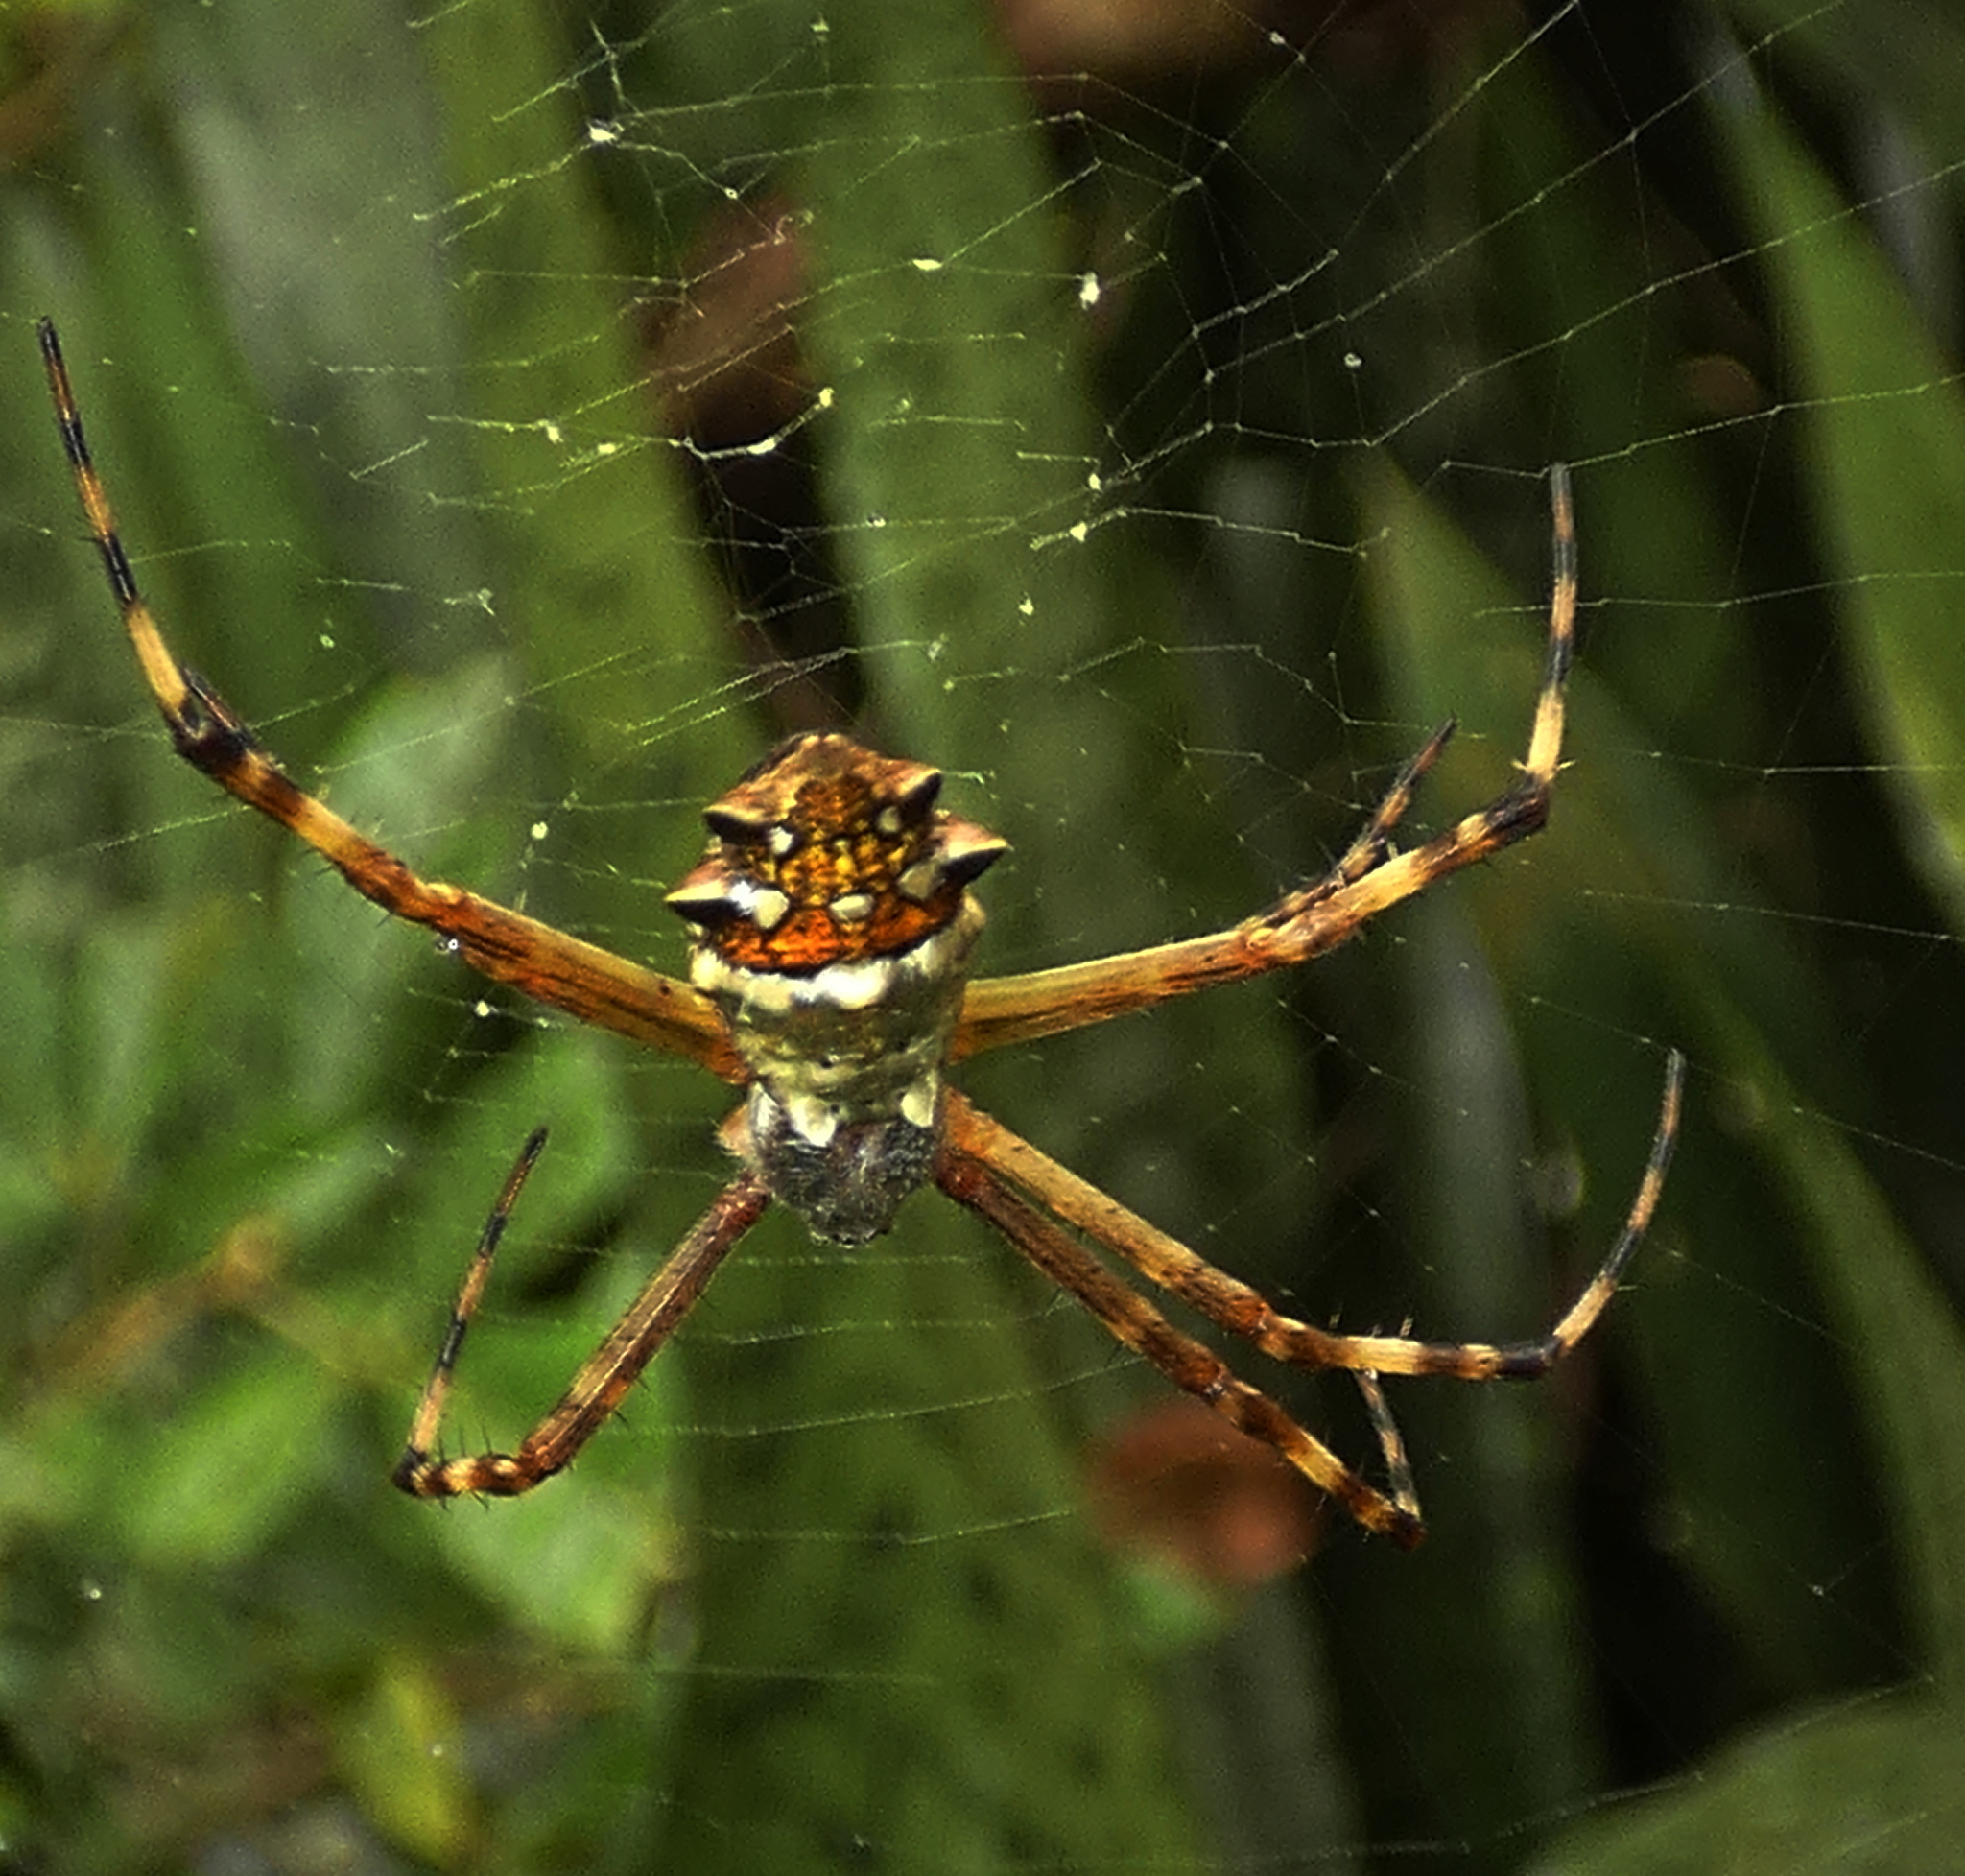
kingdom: Animalia
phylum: Arthropoda
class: Arachnida
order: Araneae
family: Araneidae
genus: Argiope
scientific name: Argiope argentata
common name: Orb weavers
